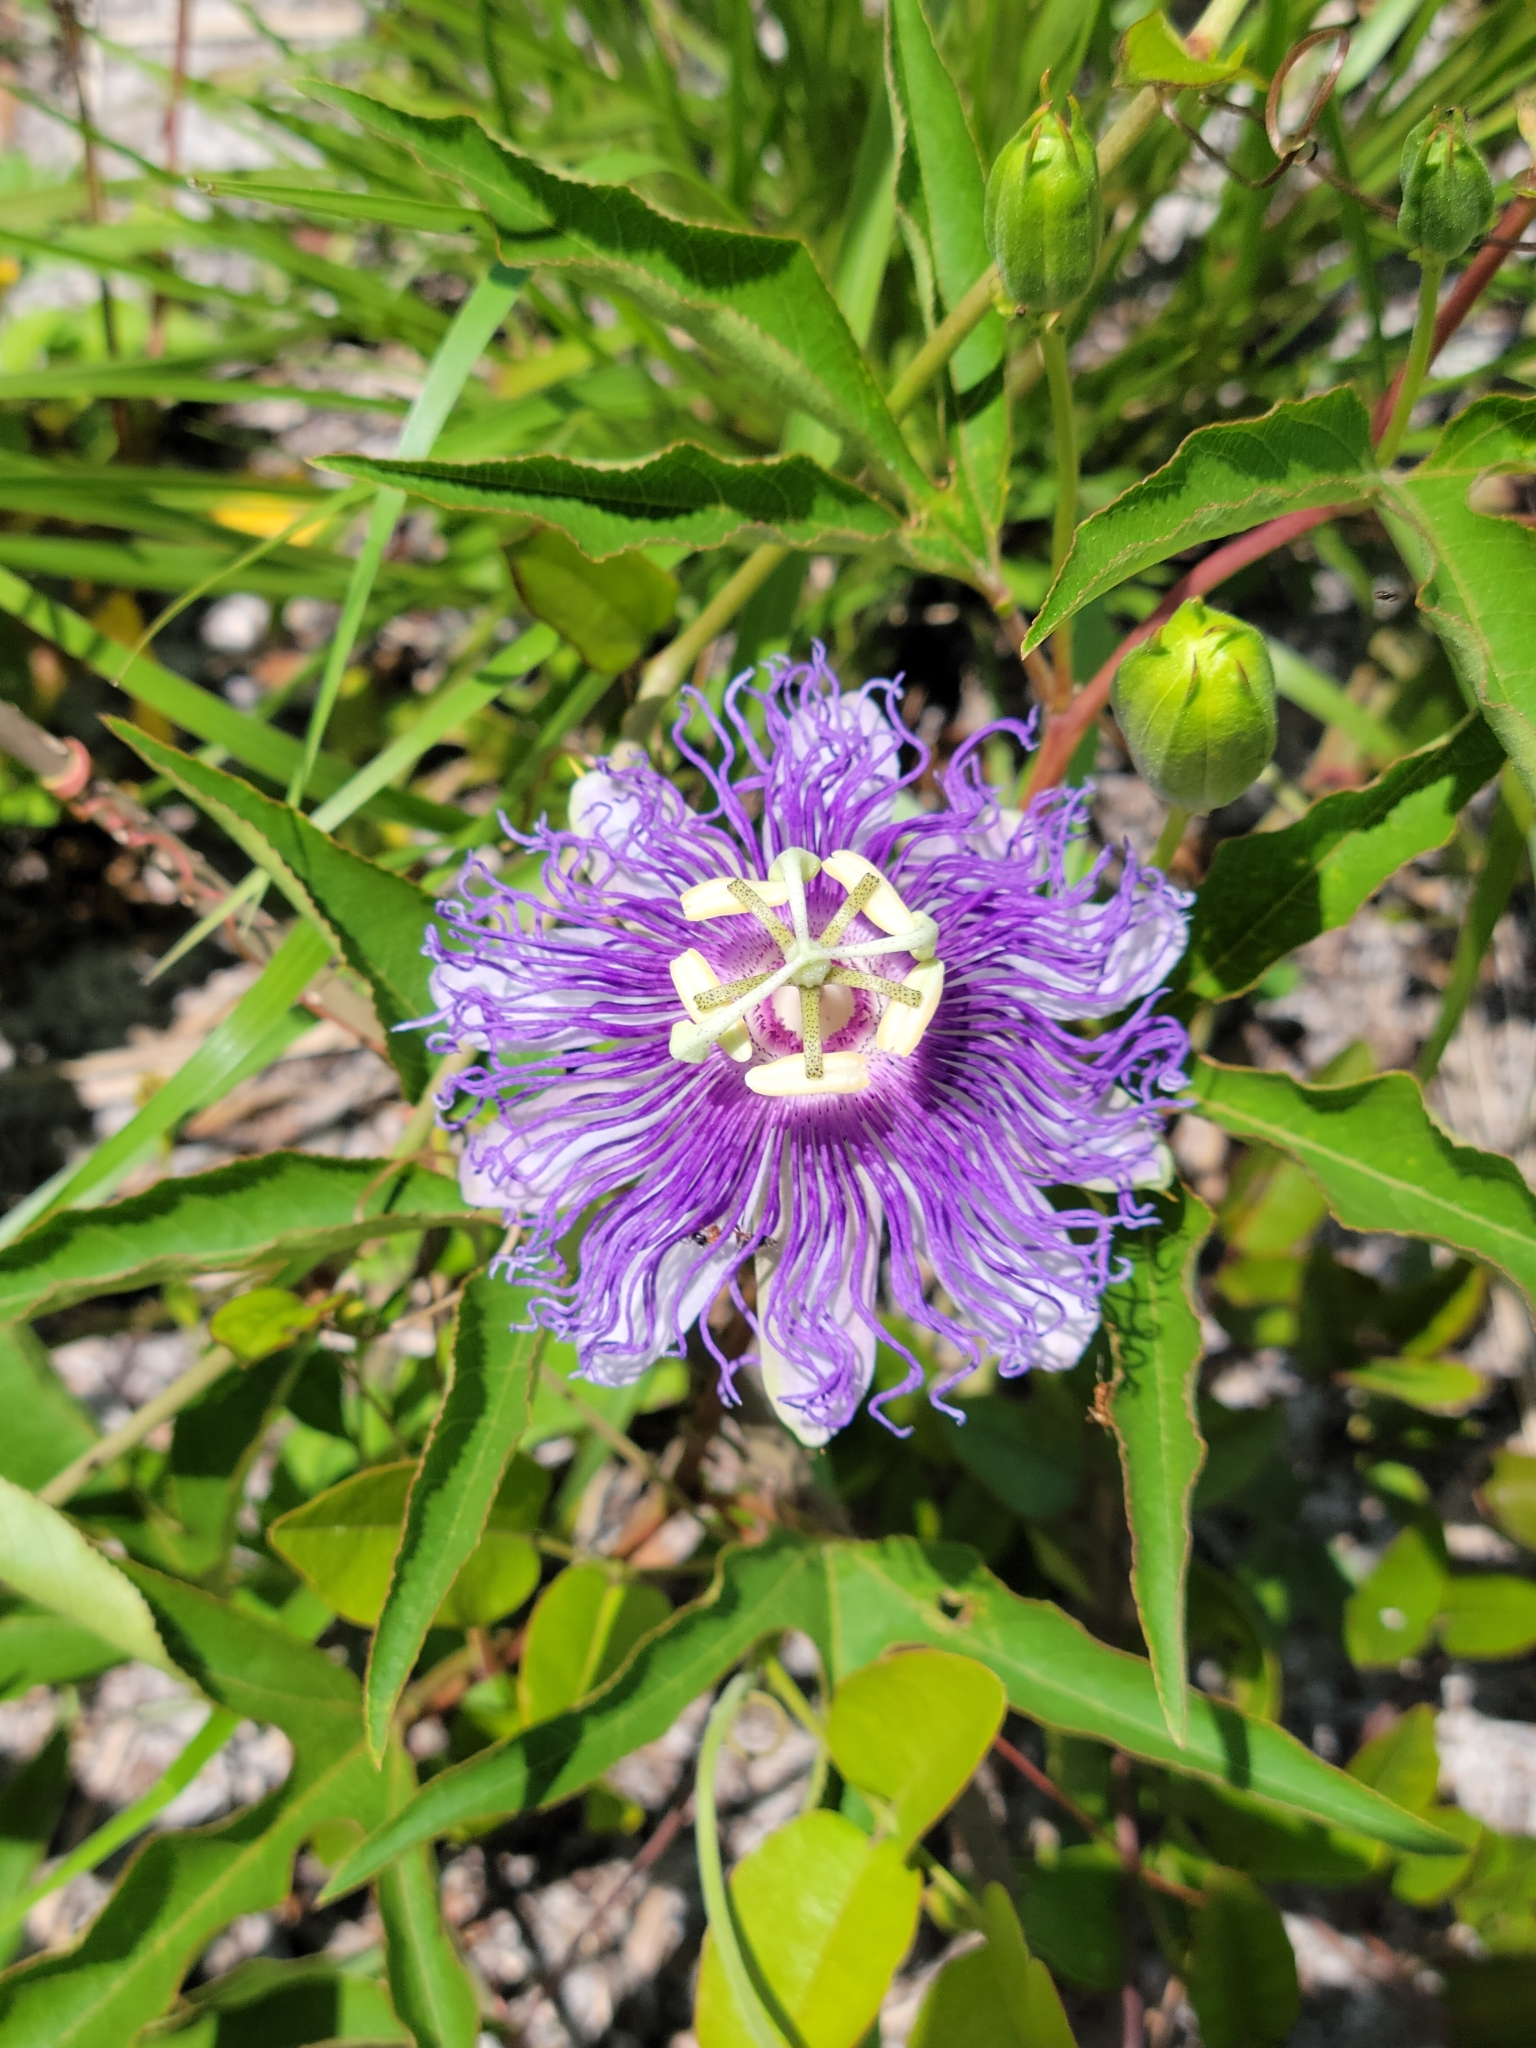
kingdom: Plantae
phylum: Tracheophyta
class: Magnoliopsida
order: Malpighiales
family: Passifloraceae
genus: Passiflora
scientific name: Passiflora incarnata
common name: Apricot-vine
